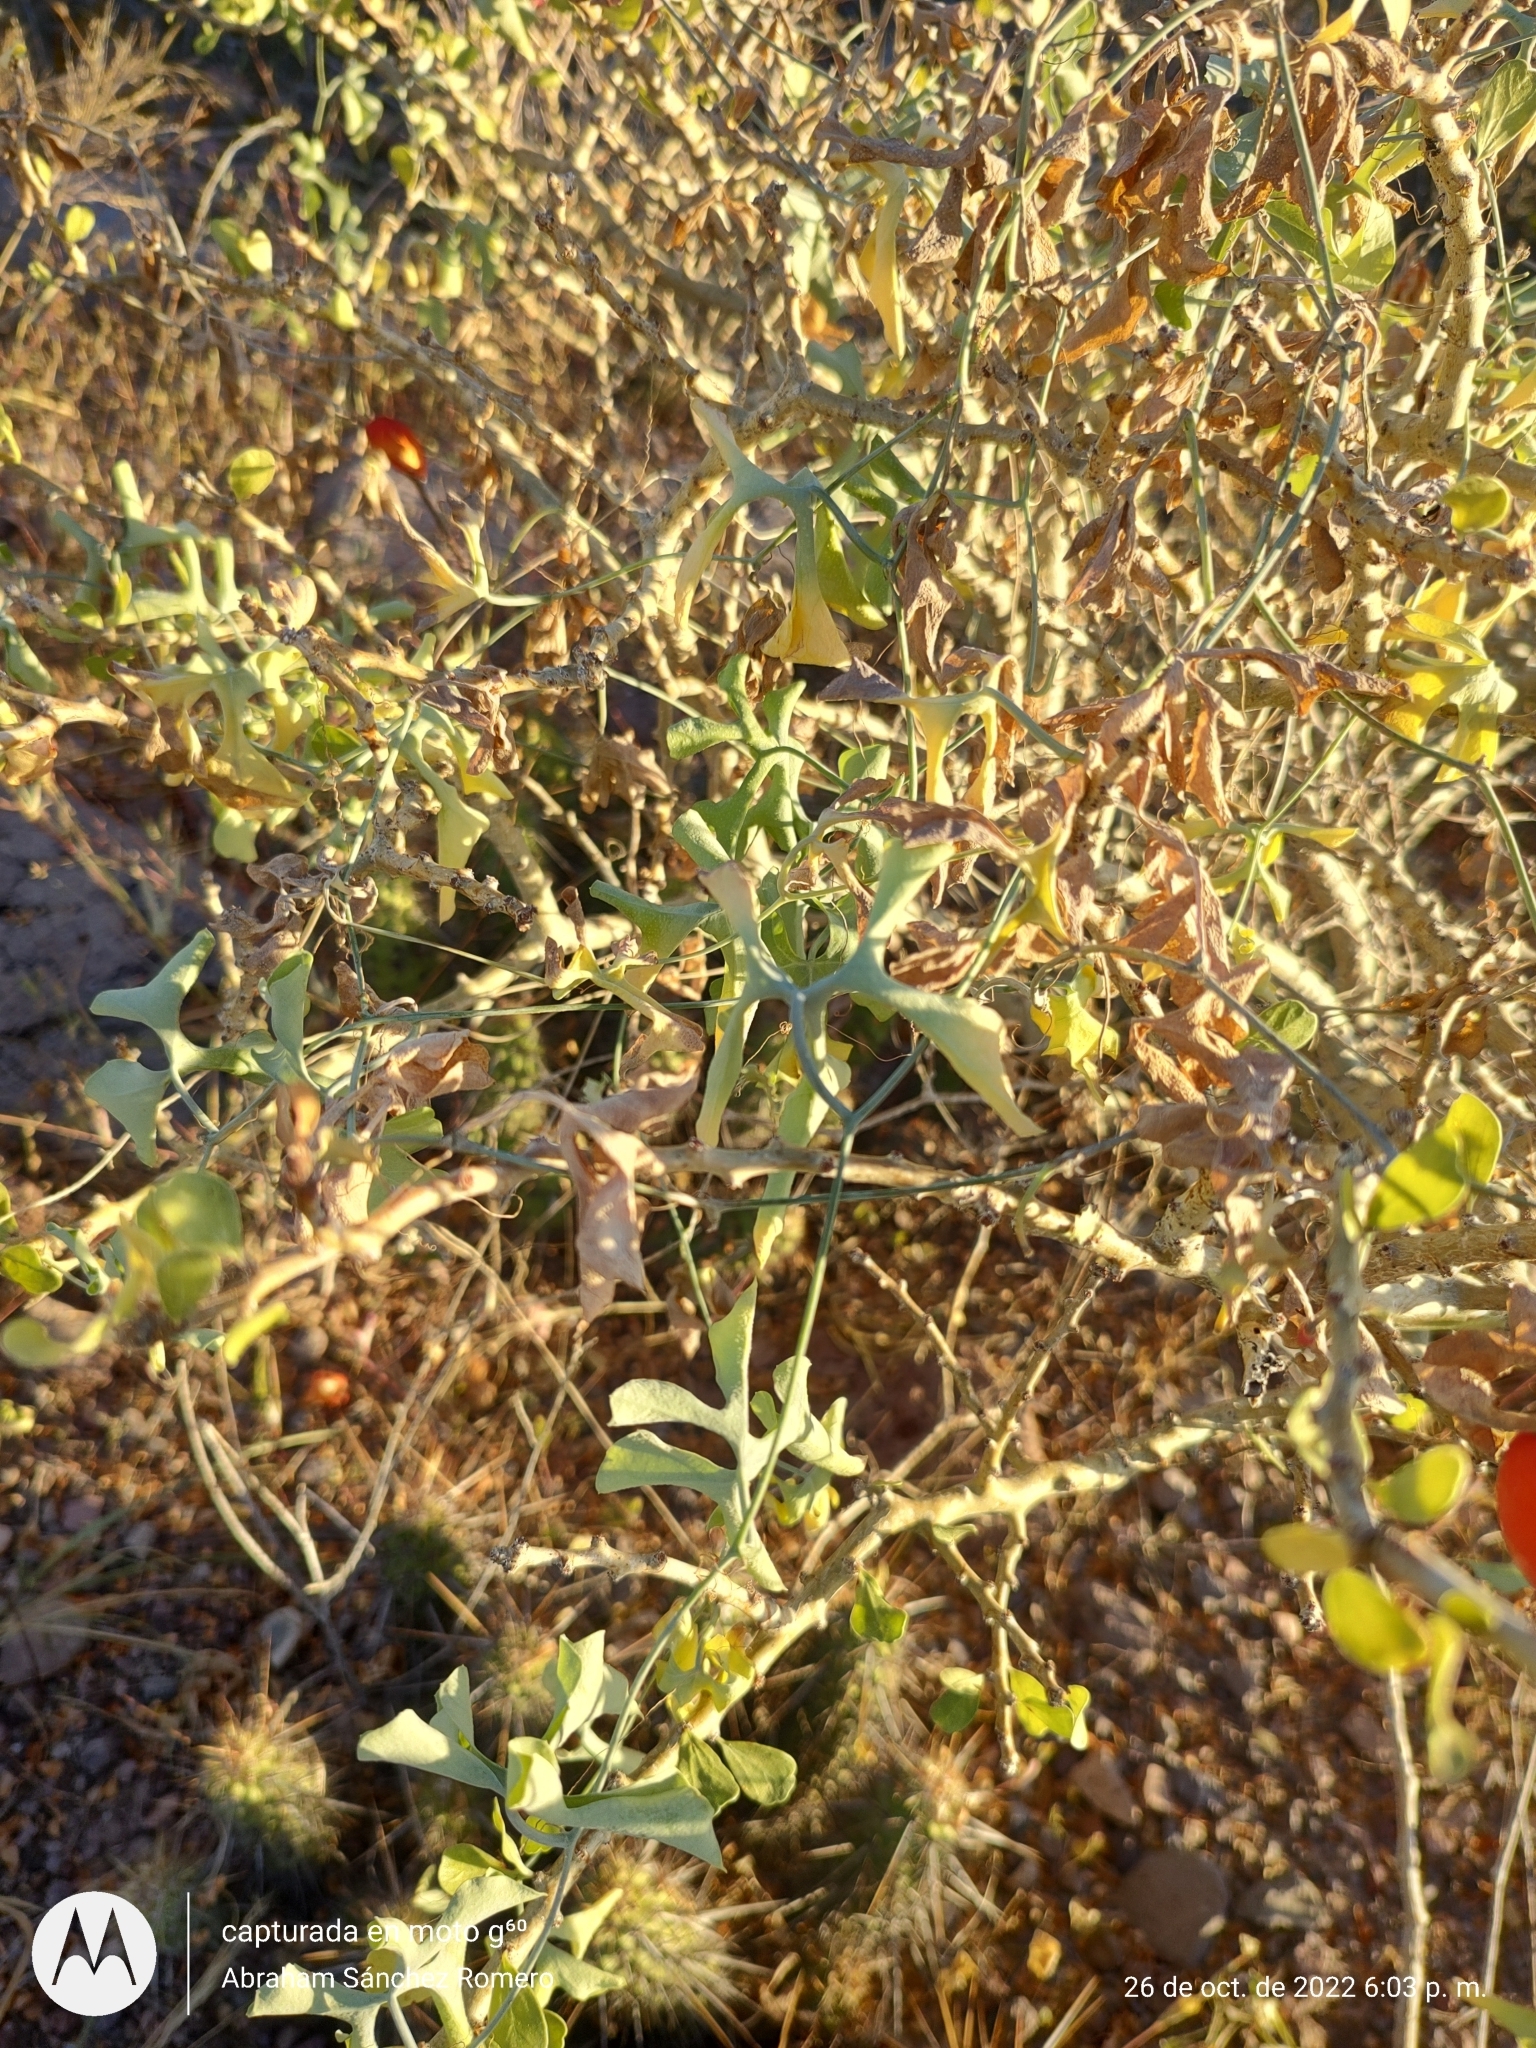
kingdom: Plantae
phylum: Tracheophyta
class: Magnoliopsida
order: Cucurbitales
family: Cucurbitaceae
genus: Ibervillea
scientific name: Ibervillea sonorae
